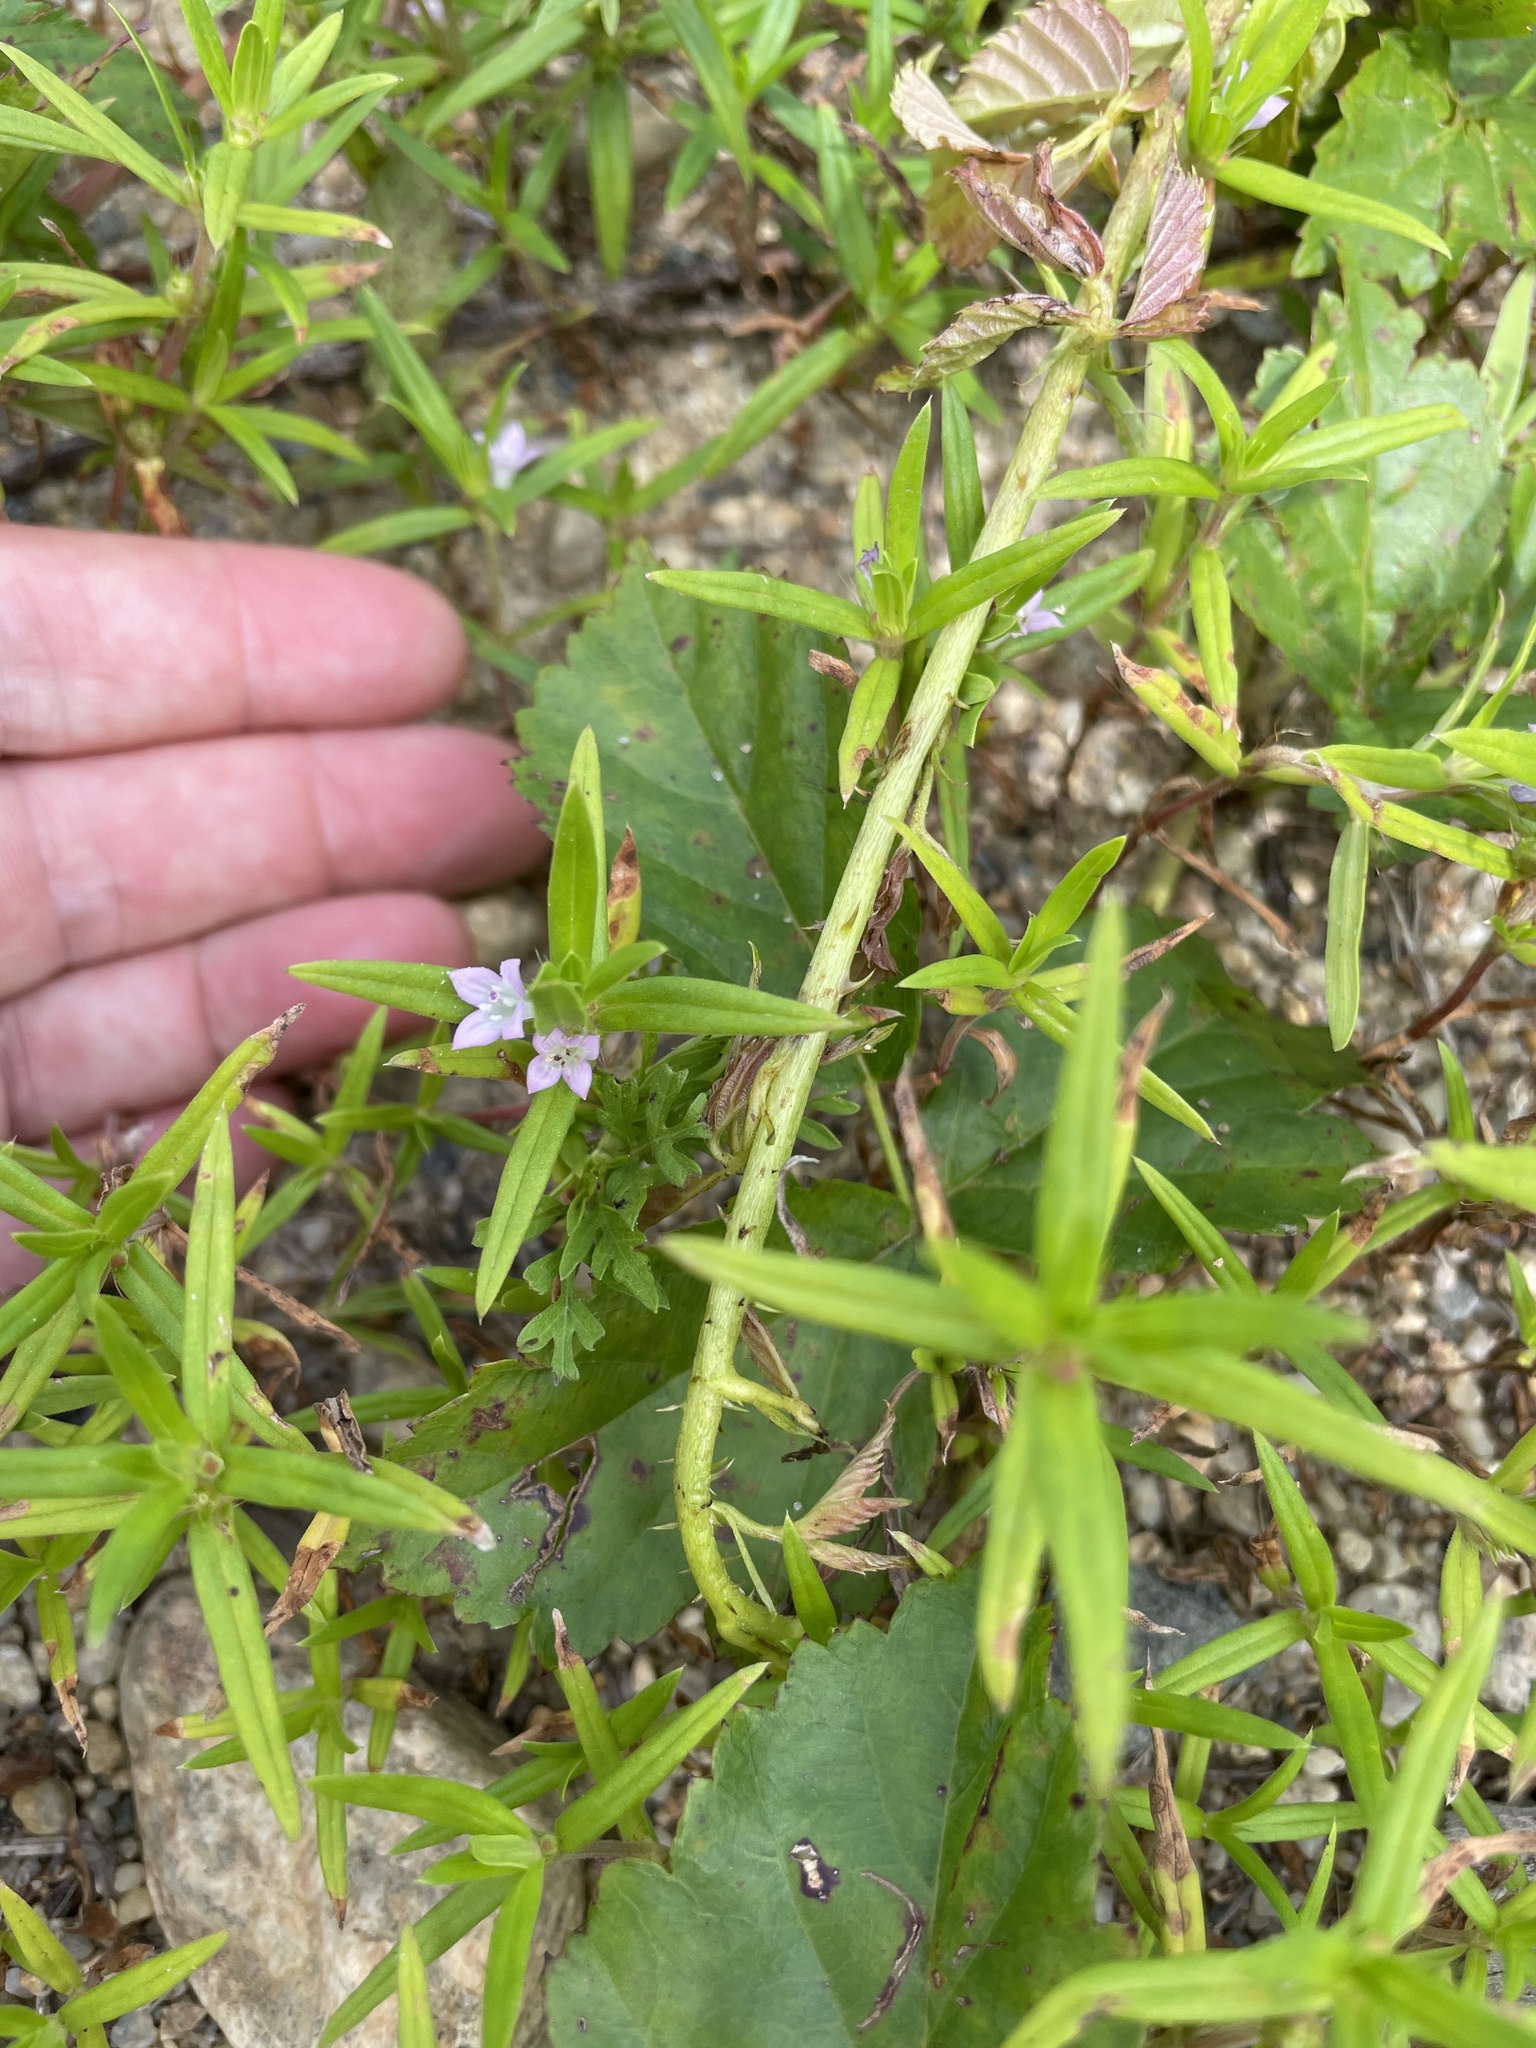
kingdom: Plantae
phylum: Tracheophyta
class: Magnoliopsida
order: Gentianales
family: Rubiaceae
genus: Hexasepalum
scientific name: Hexasepalum teres
